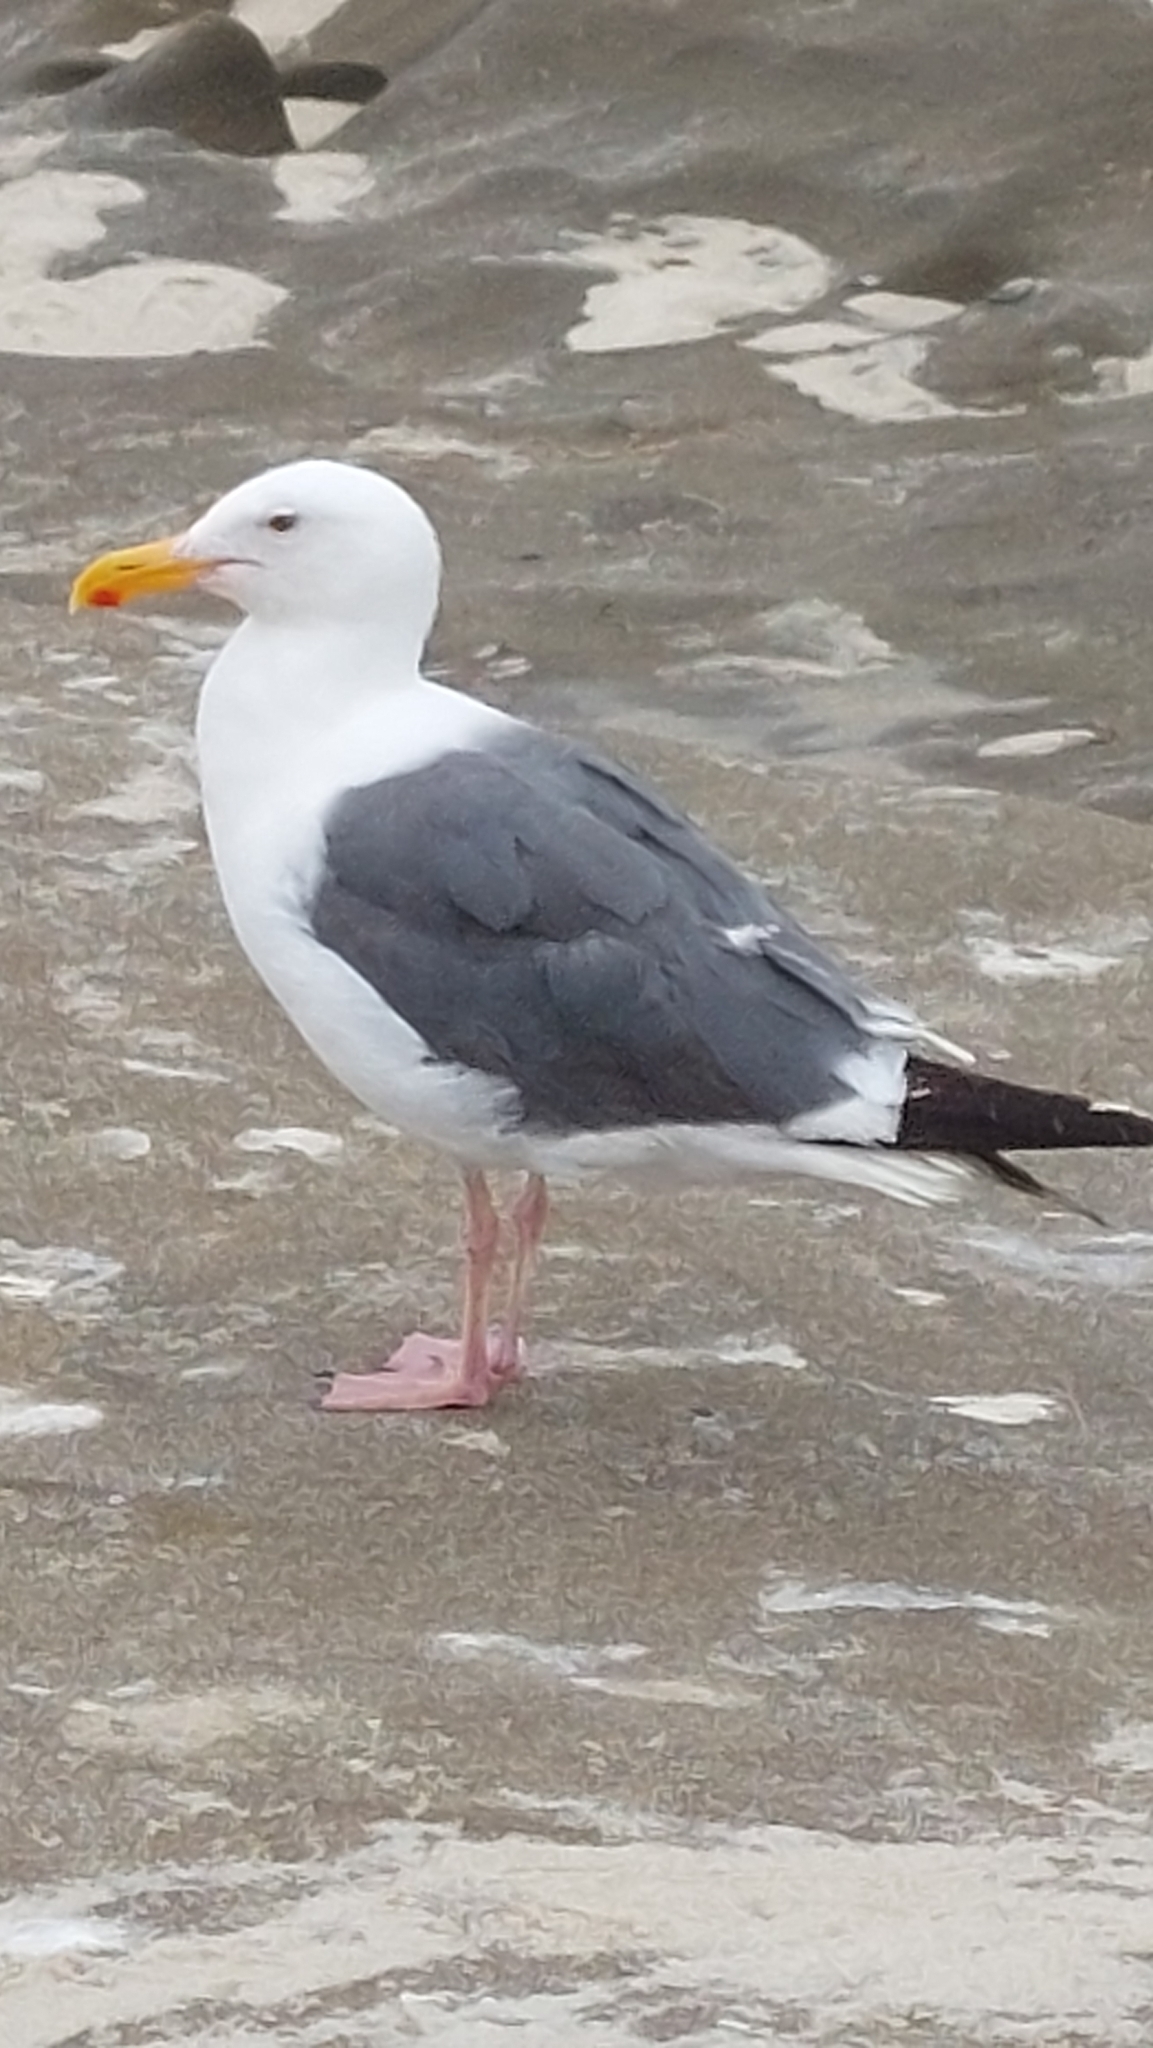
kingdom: Animalia
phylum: Chordata
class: Aves
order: Charadriiformes
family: Laridae
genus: Larus
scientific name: Larus occidentalis
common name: Western gull
